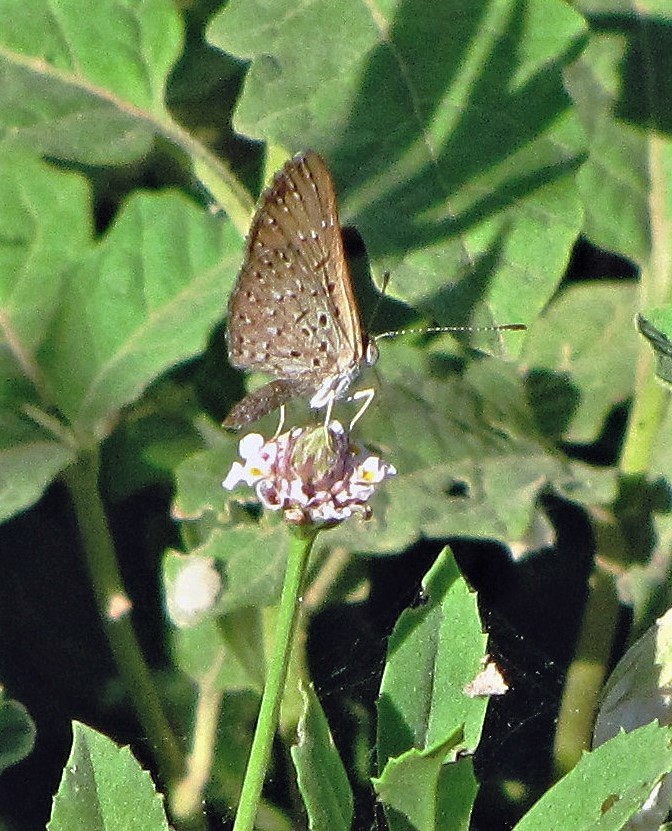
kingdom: Animalia
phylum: Arthropoda
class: Insecta
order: Lepidoptera
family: Riodinidae
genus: Zabuella
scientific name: Zabuella tenellus
